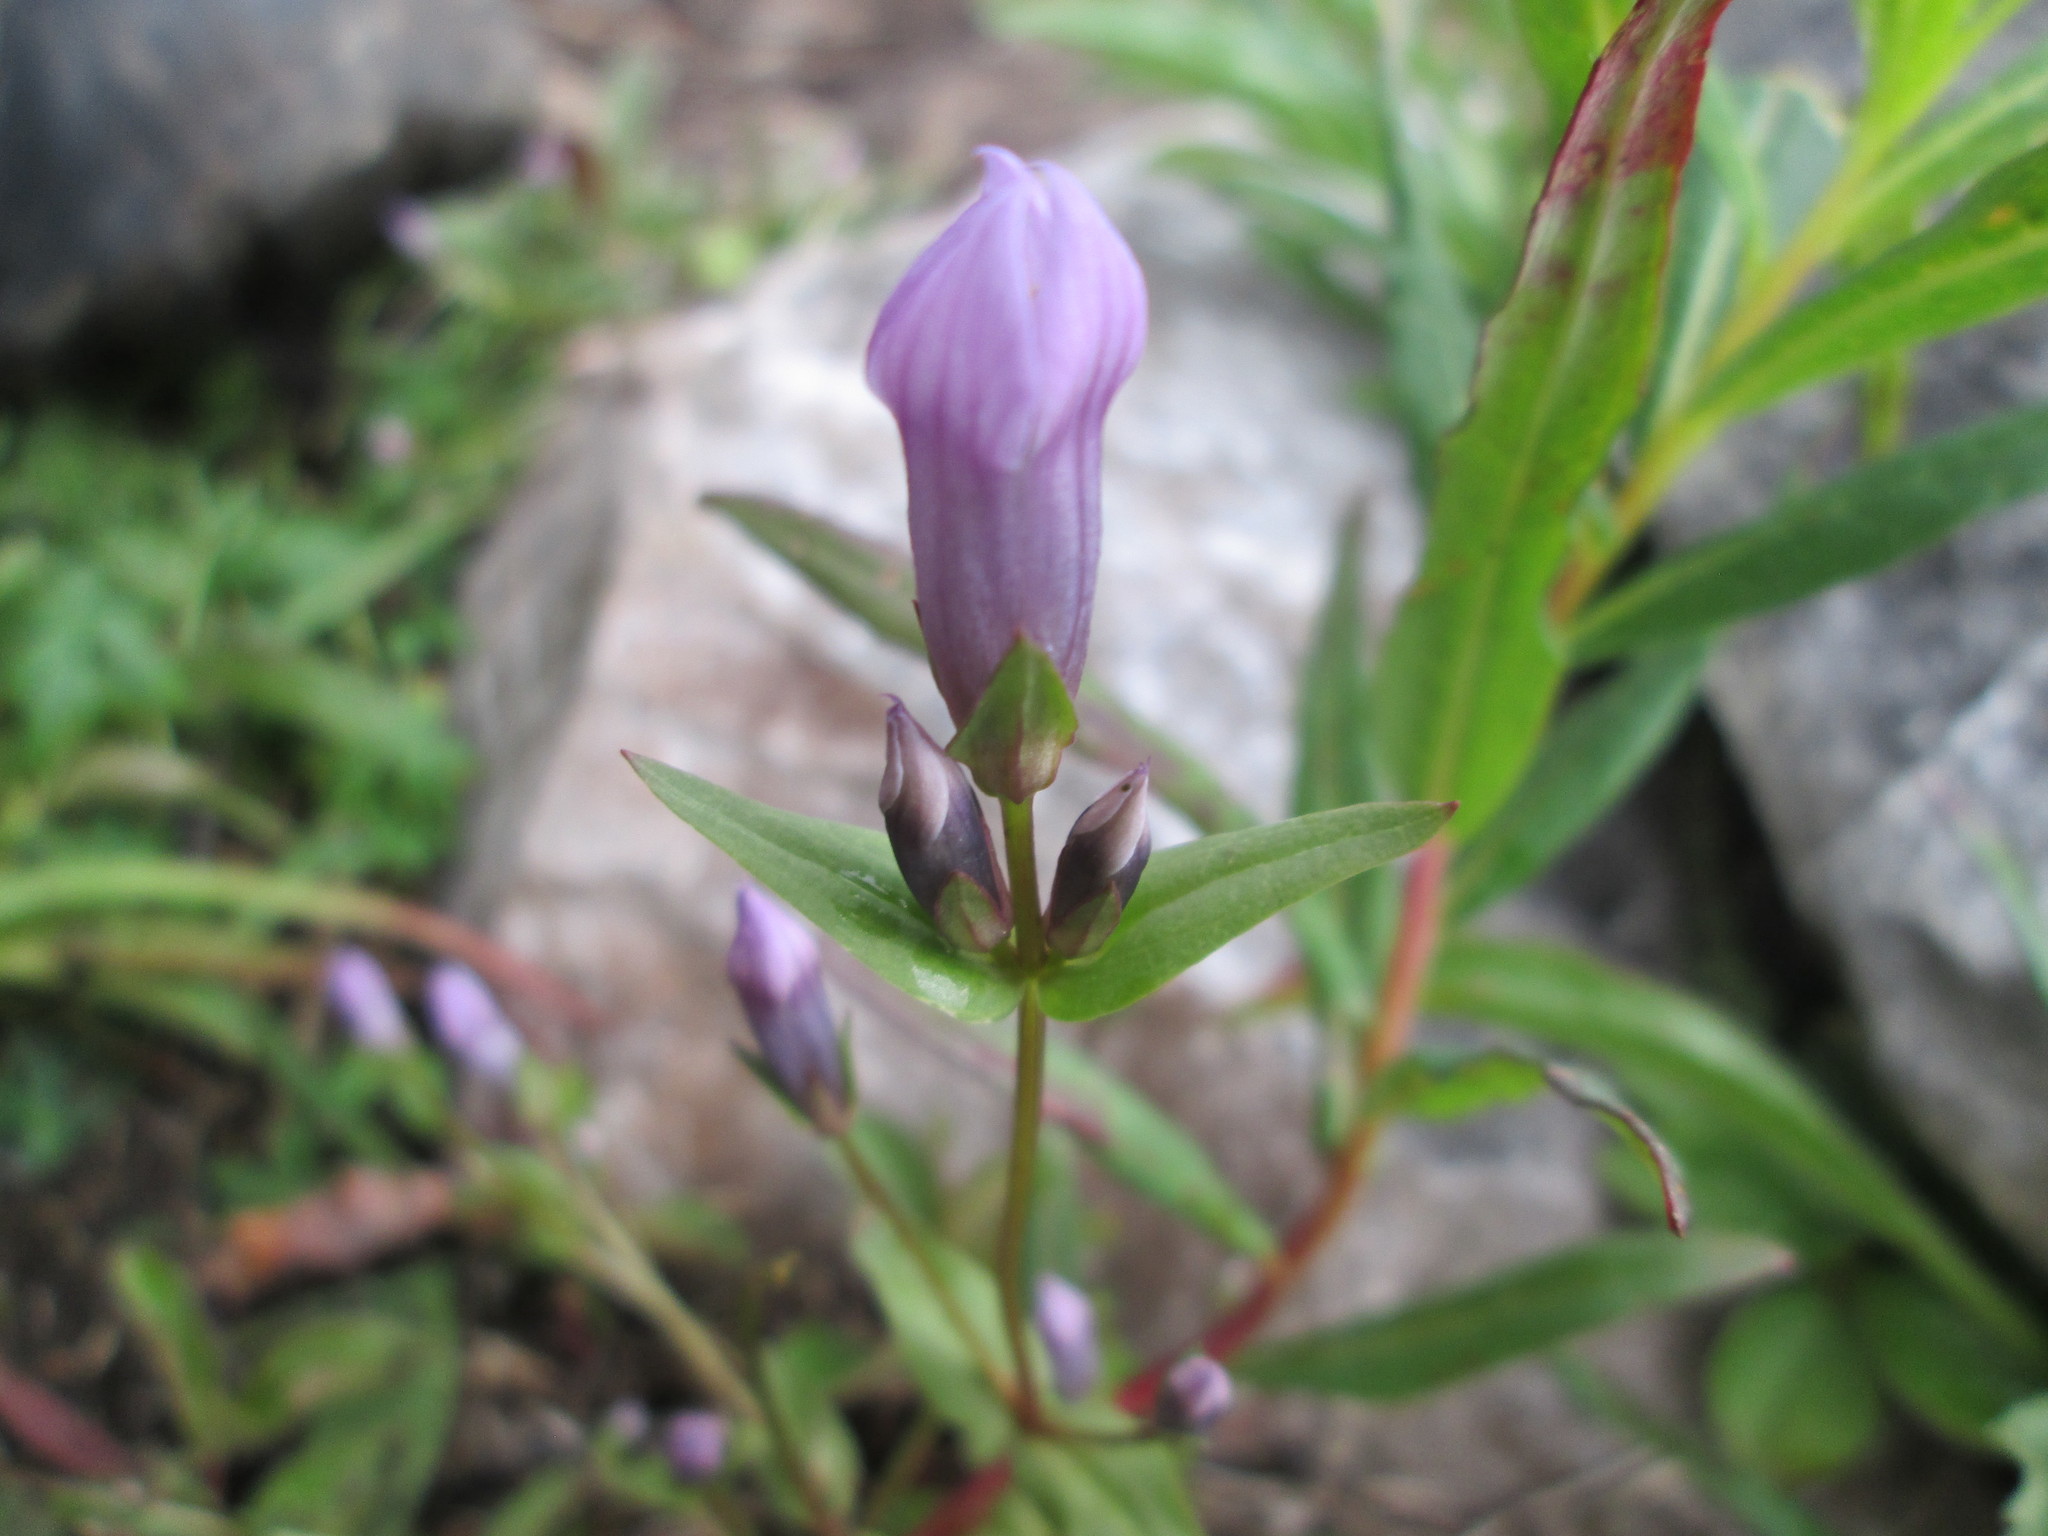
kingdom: Plantae
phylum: Tracheophyta
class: Magnoliopsida
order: Gentianales
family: Gentianaceae
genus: Gentianella
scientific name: Gentianella propinqua
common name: Four-parted dwarf-gentian
